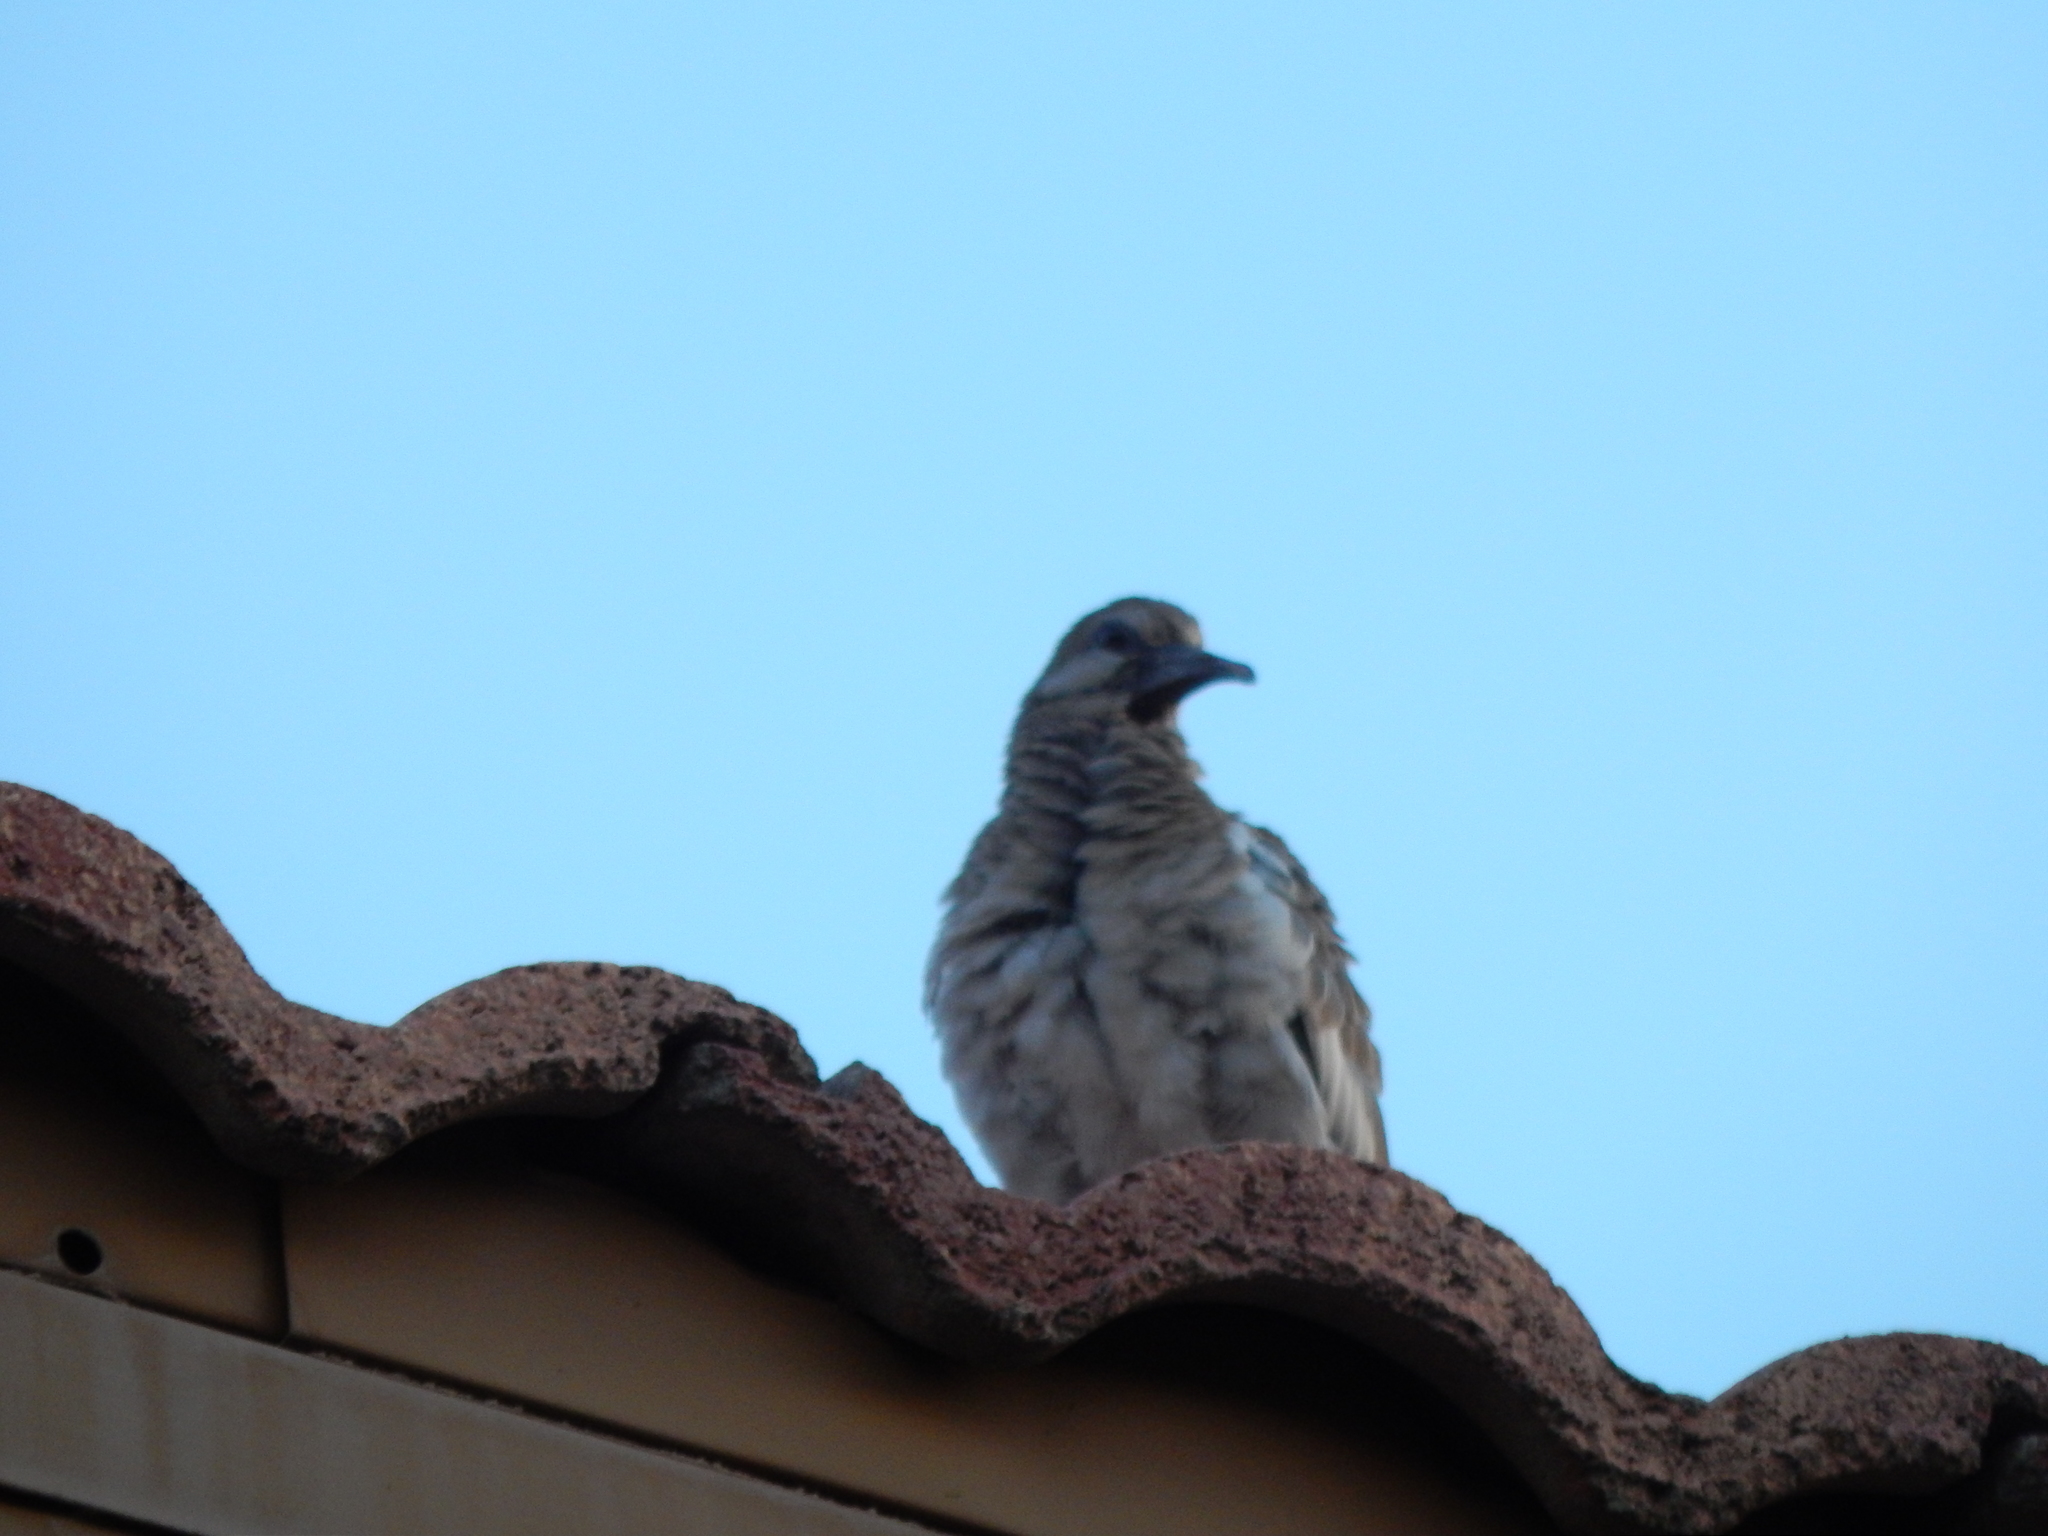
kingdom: Animalia
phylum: Chordata
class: Aves
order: Columbiformes
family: Columbidae
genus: Zenaida
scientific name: Zenaida asiatica
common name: White-winged dove
